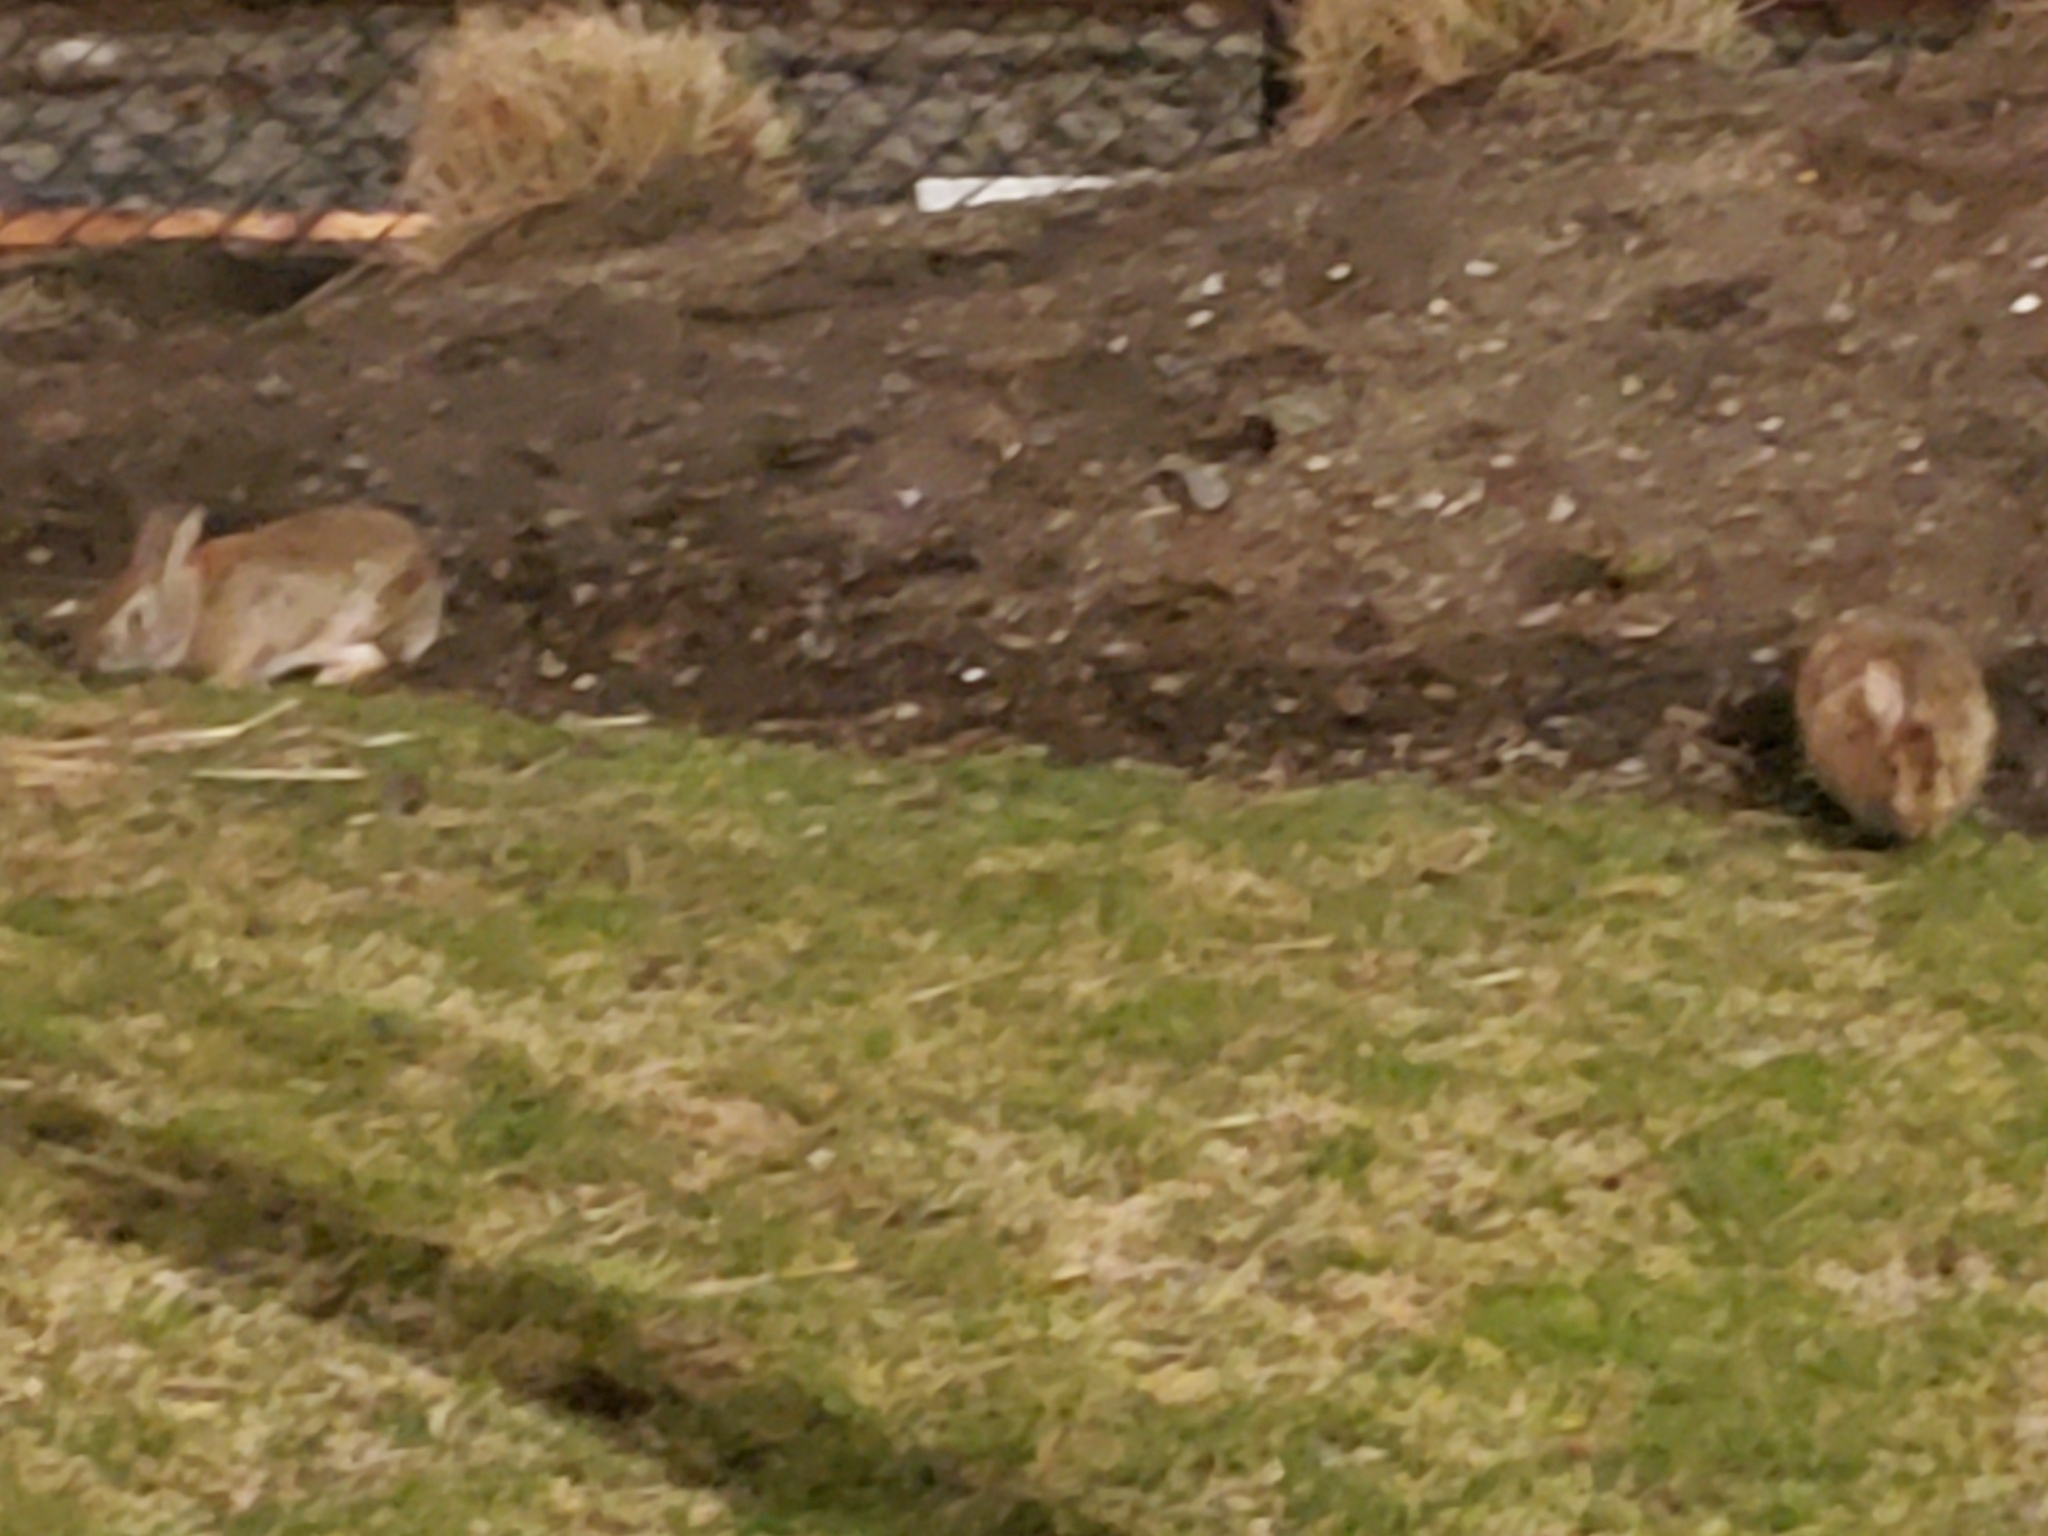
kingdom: Animalia
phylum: Chordata
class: Mammalia
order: Lagomorpha
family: Leporidae
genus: Sylvilagus
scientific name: Sylvilagus floridanus
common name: Eastern cottontail
